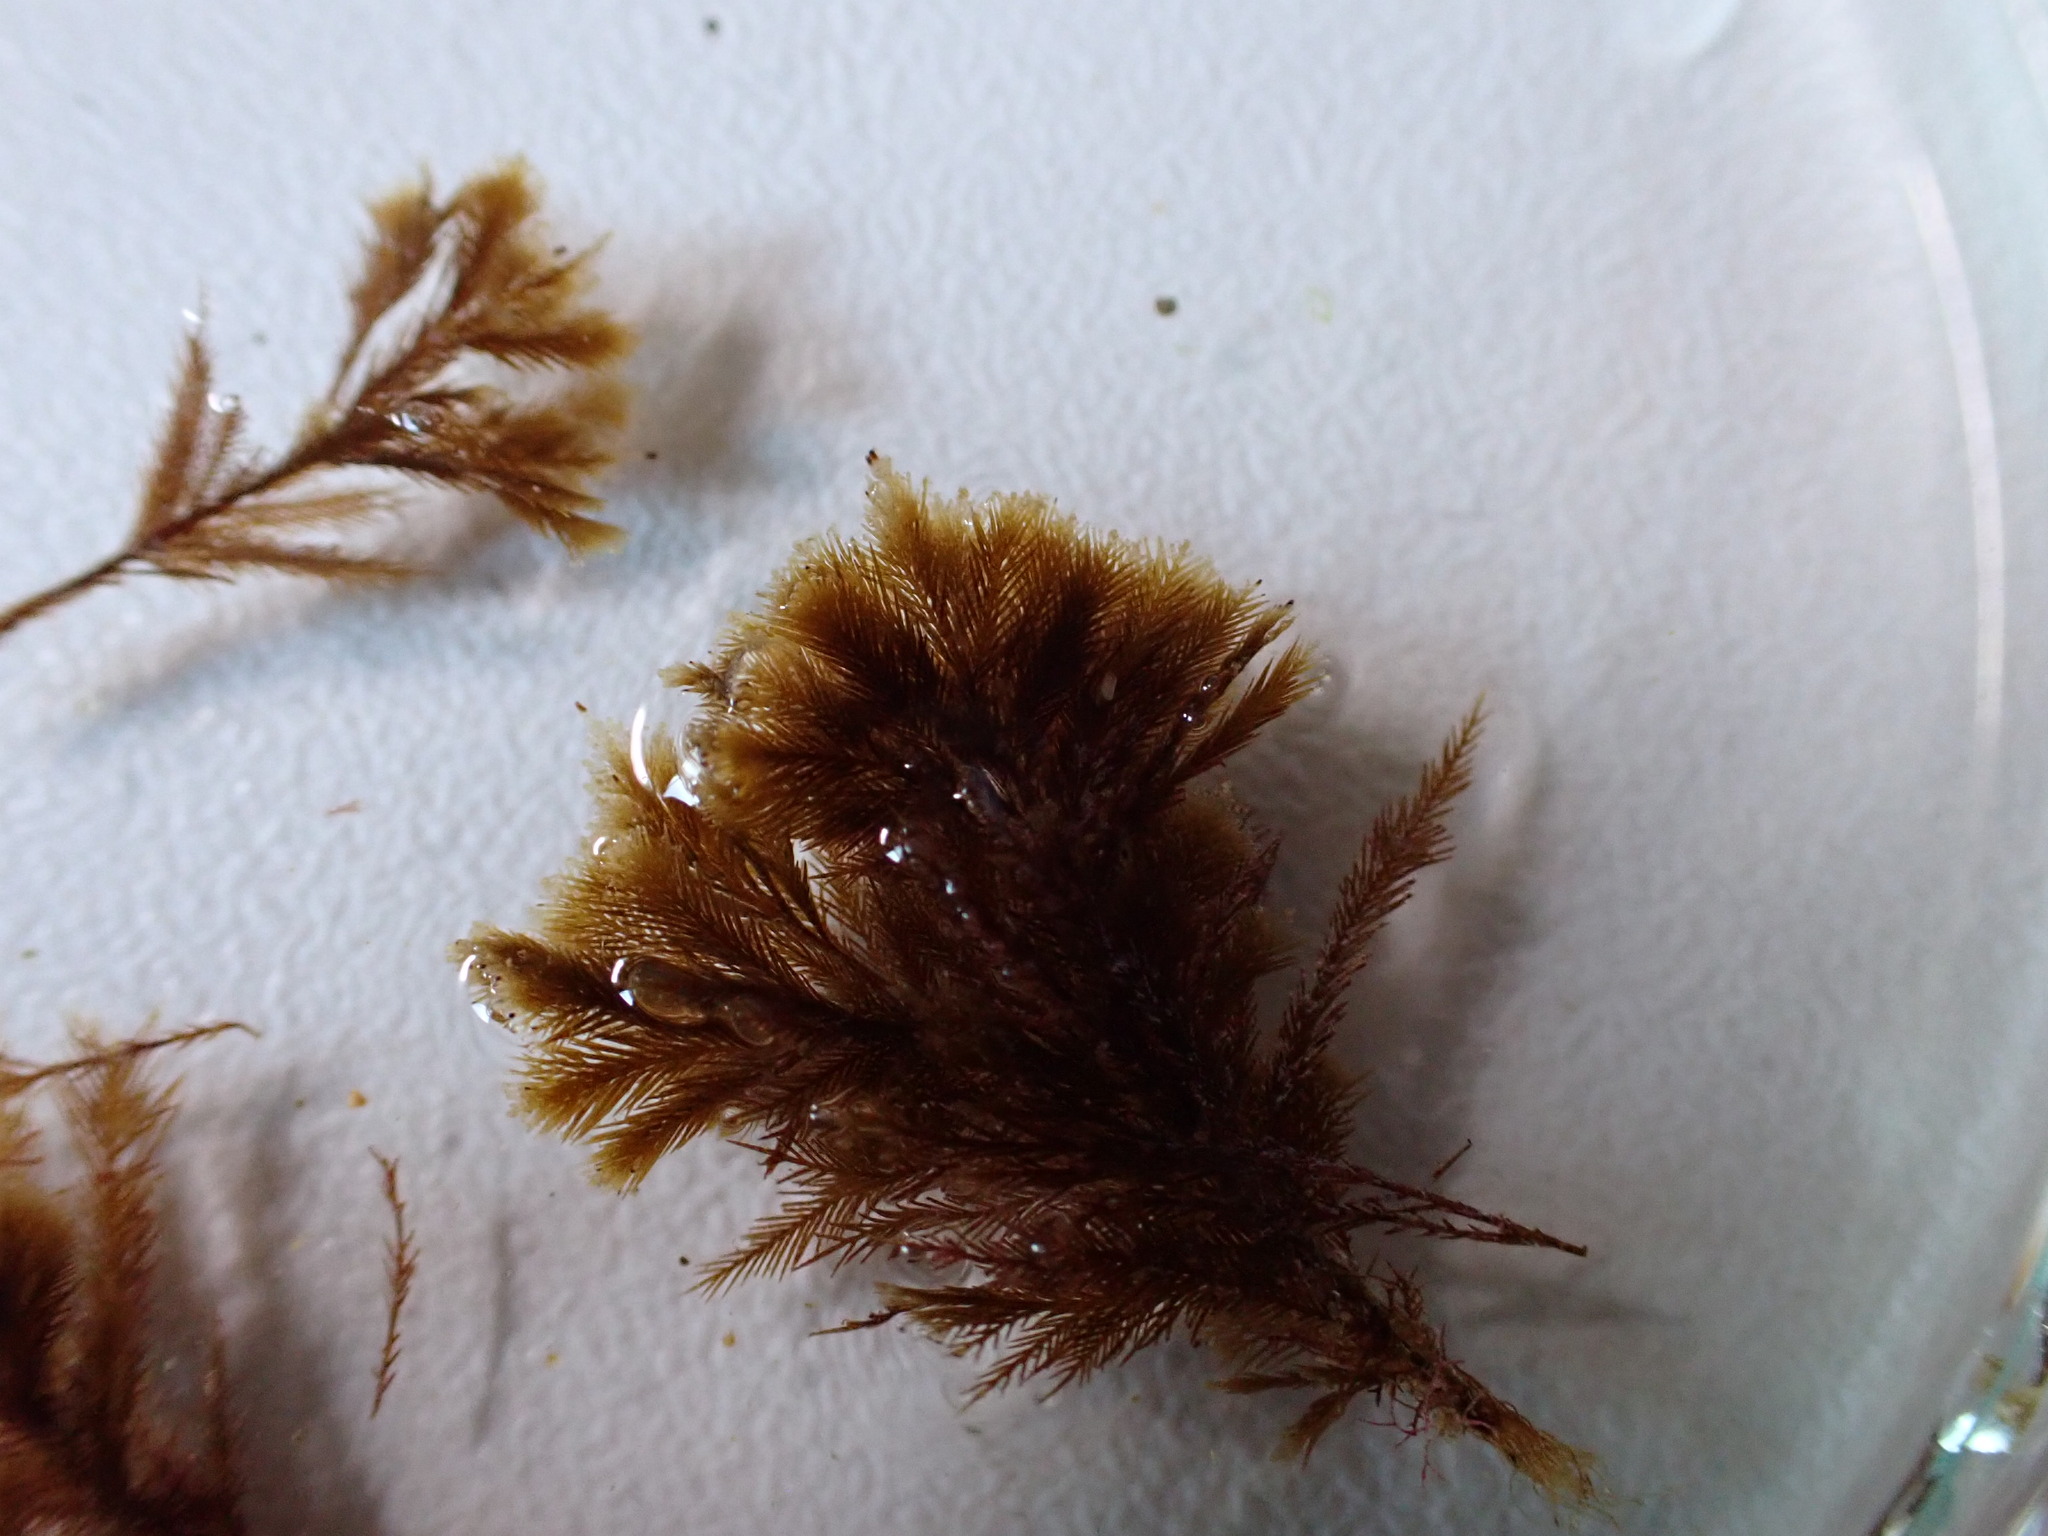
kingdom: Chromista
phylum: Ochrophyta
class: Phaeophyceae
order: Sphacelariales
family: Stypocaulaceae
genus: Halopteris
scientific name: Halopteris filicina
